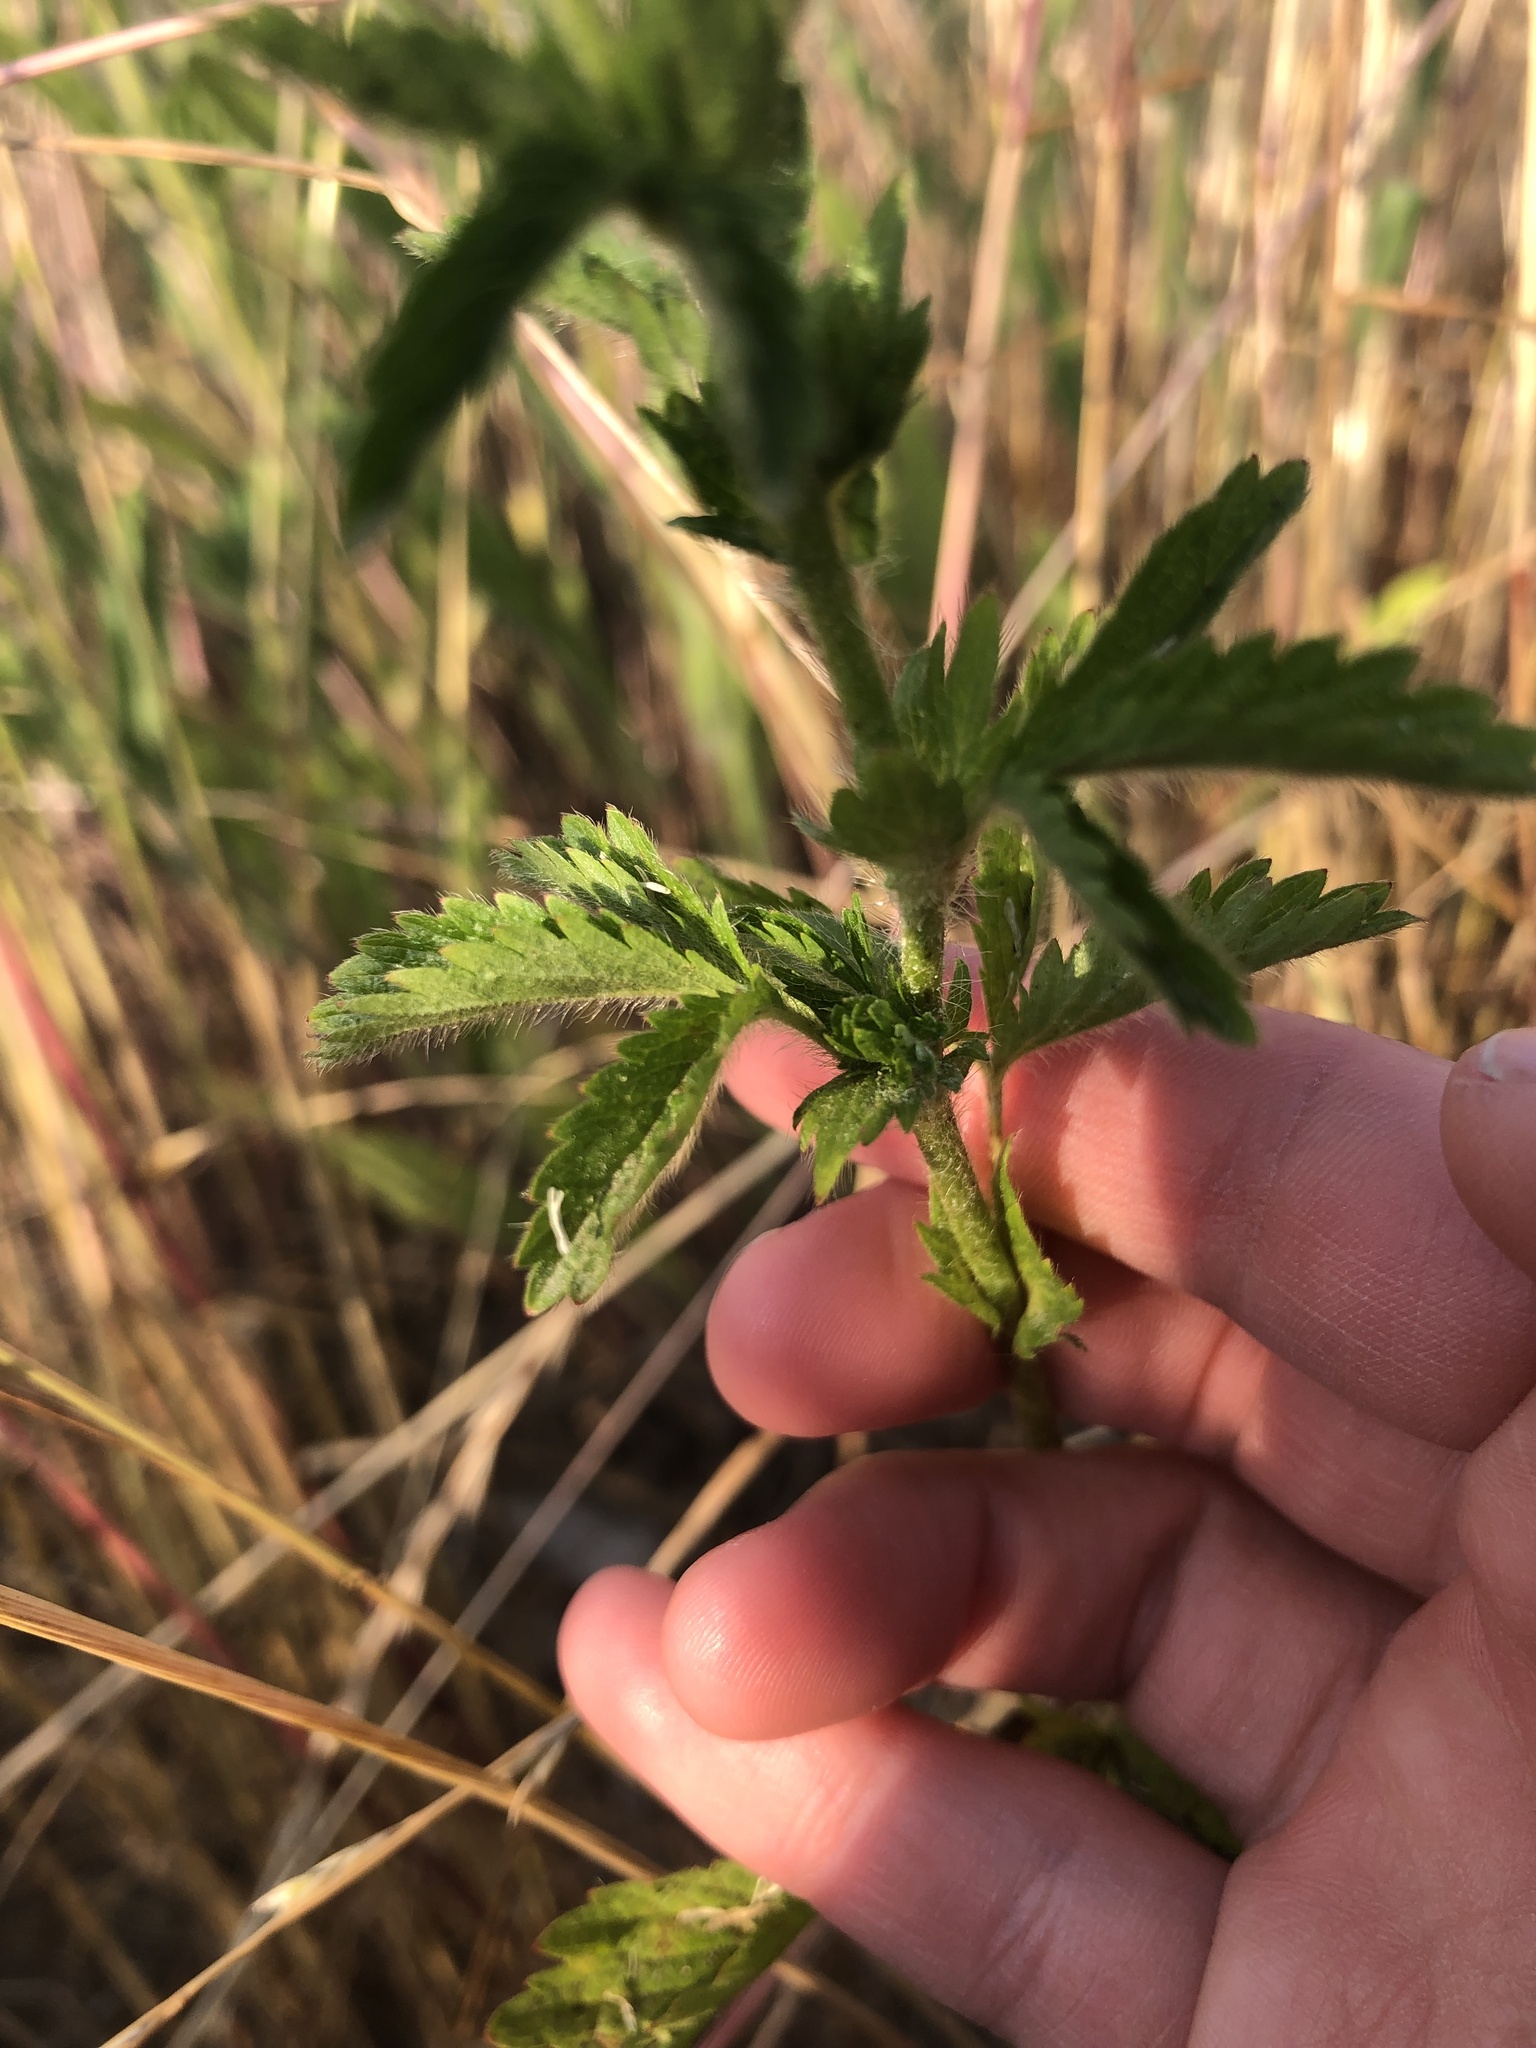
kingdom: Plantae
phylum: Tracheophyta
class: Magnoliopsida
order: Rosales
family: Rosaceae
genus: Potentilla
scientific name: Potentilla norvegica
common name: Ternate-leaved cinquefoil
